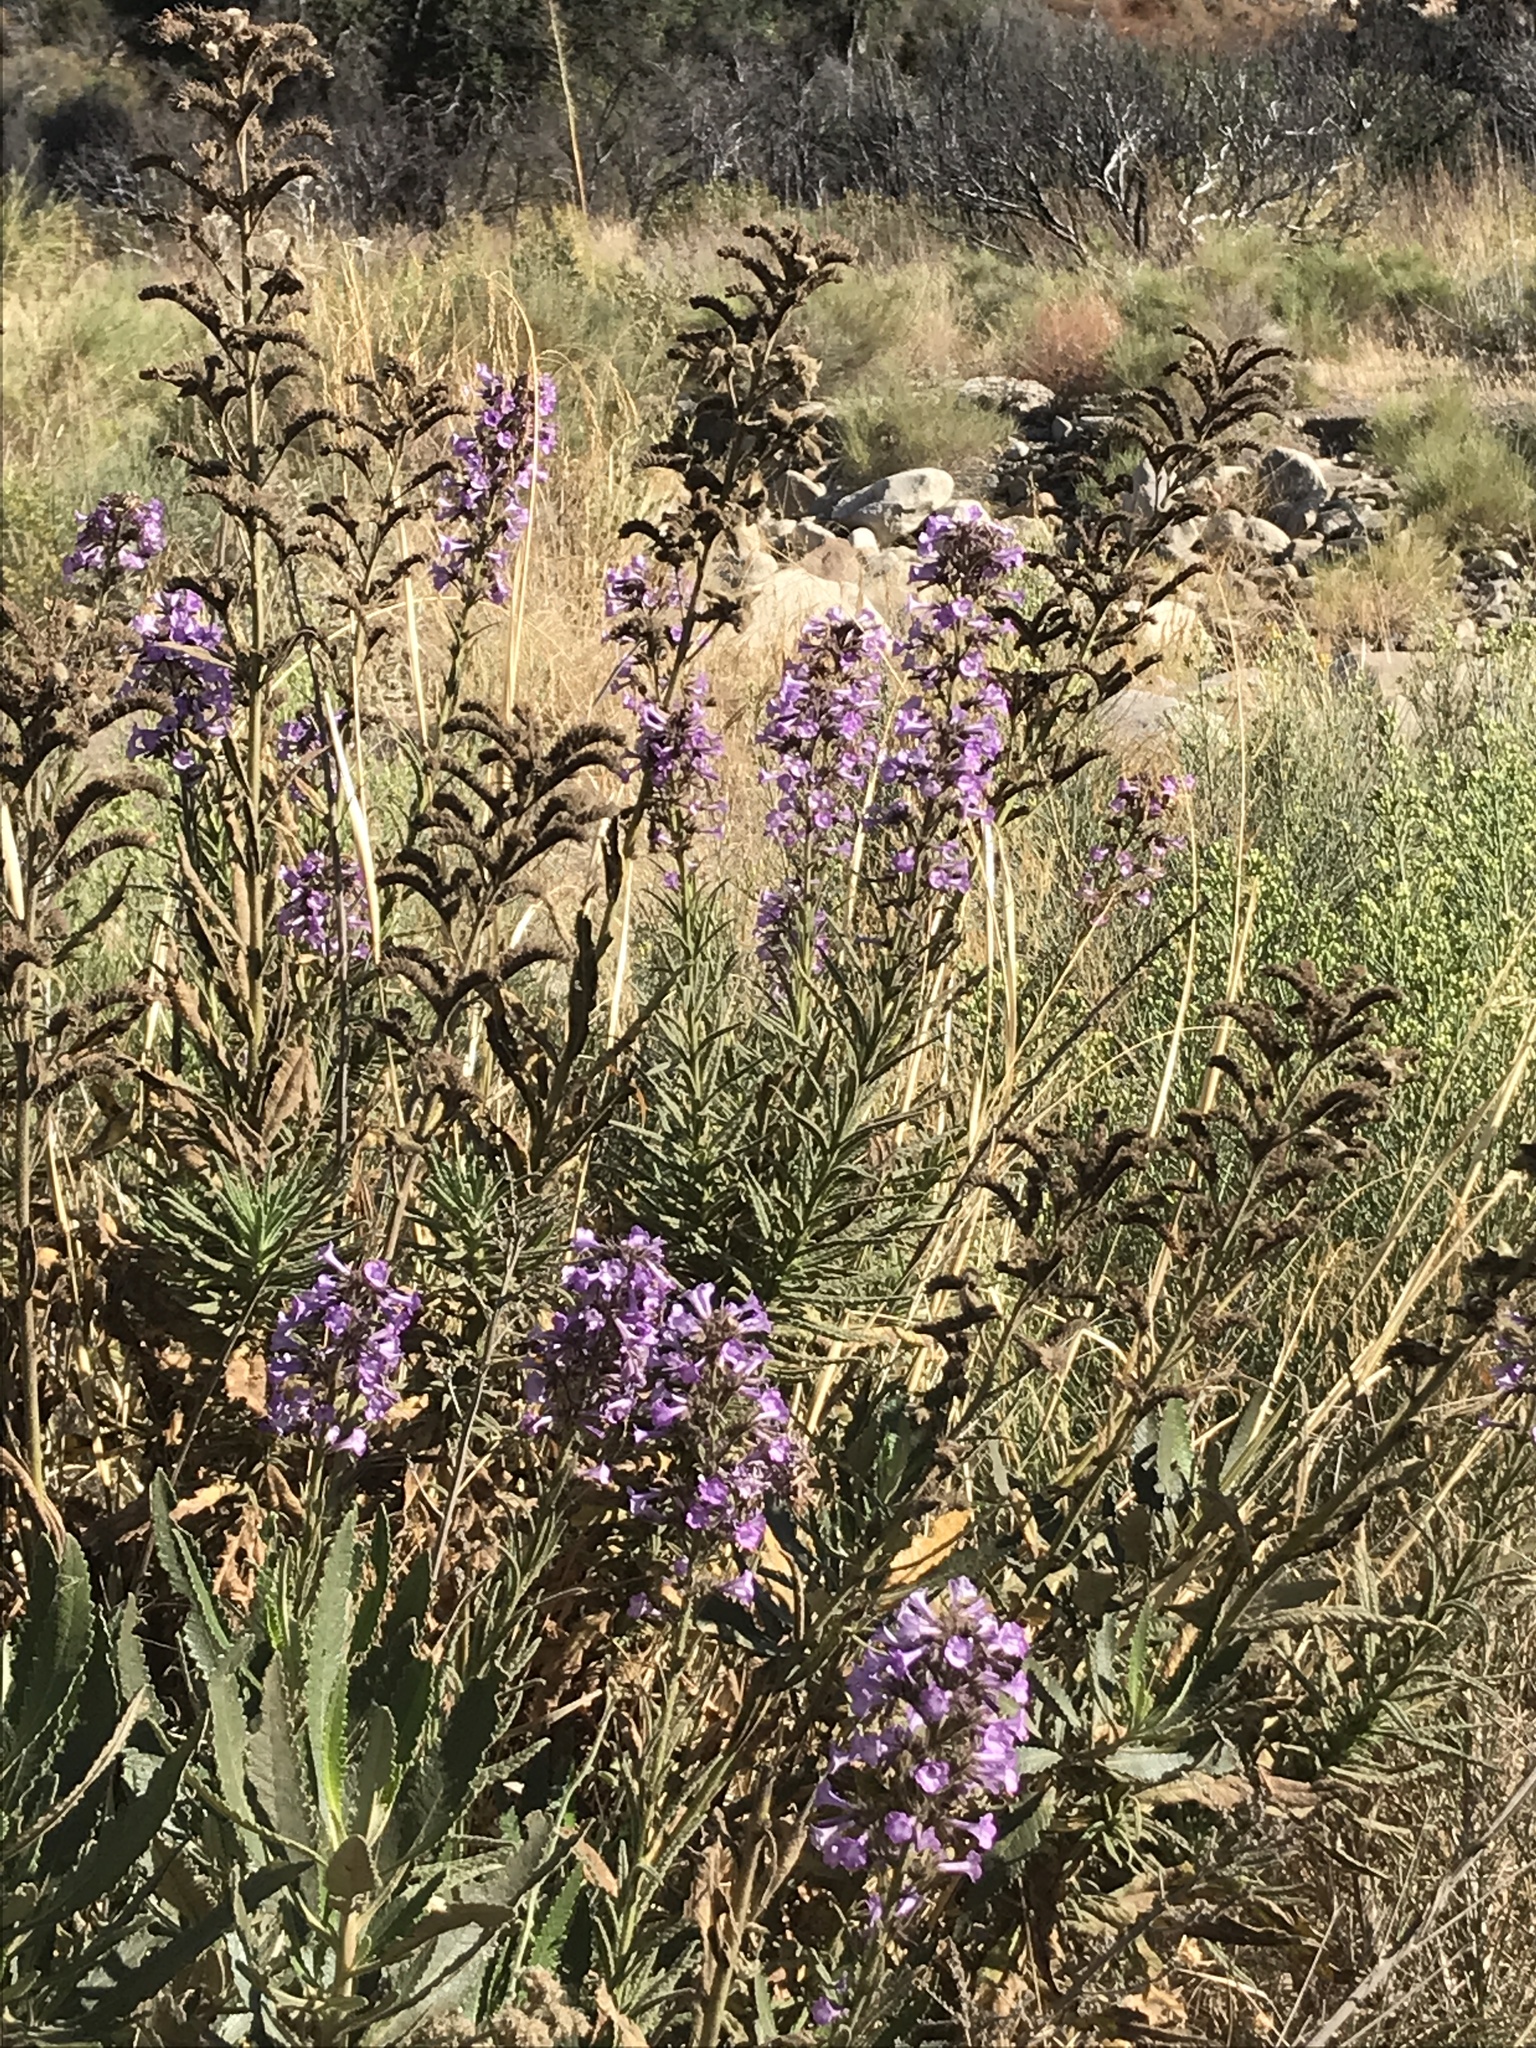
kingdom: Plantae
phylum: Tracheophyta
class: Magnoliopsida
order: Boraginales
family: Namaceae
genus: Turricula
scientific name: Turricula parryi
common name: Poodle-dog-bush
